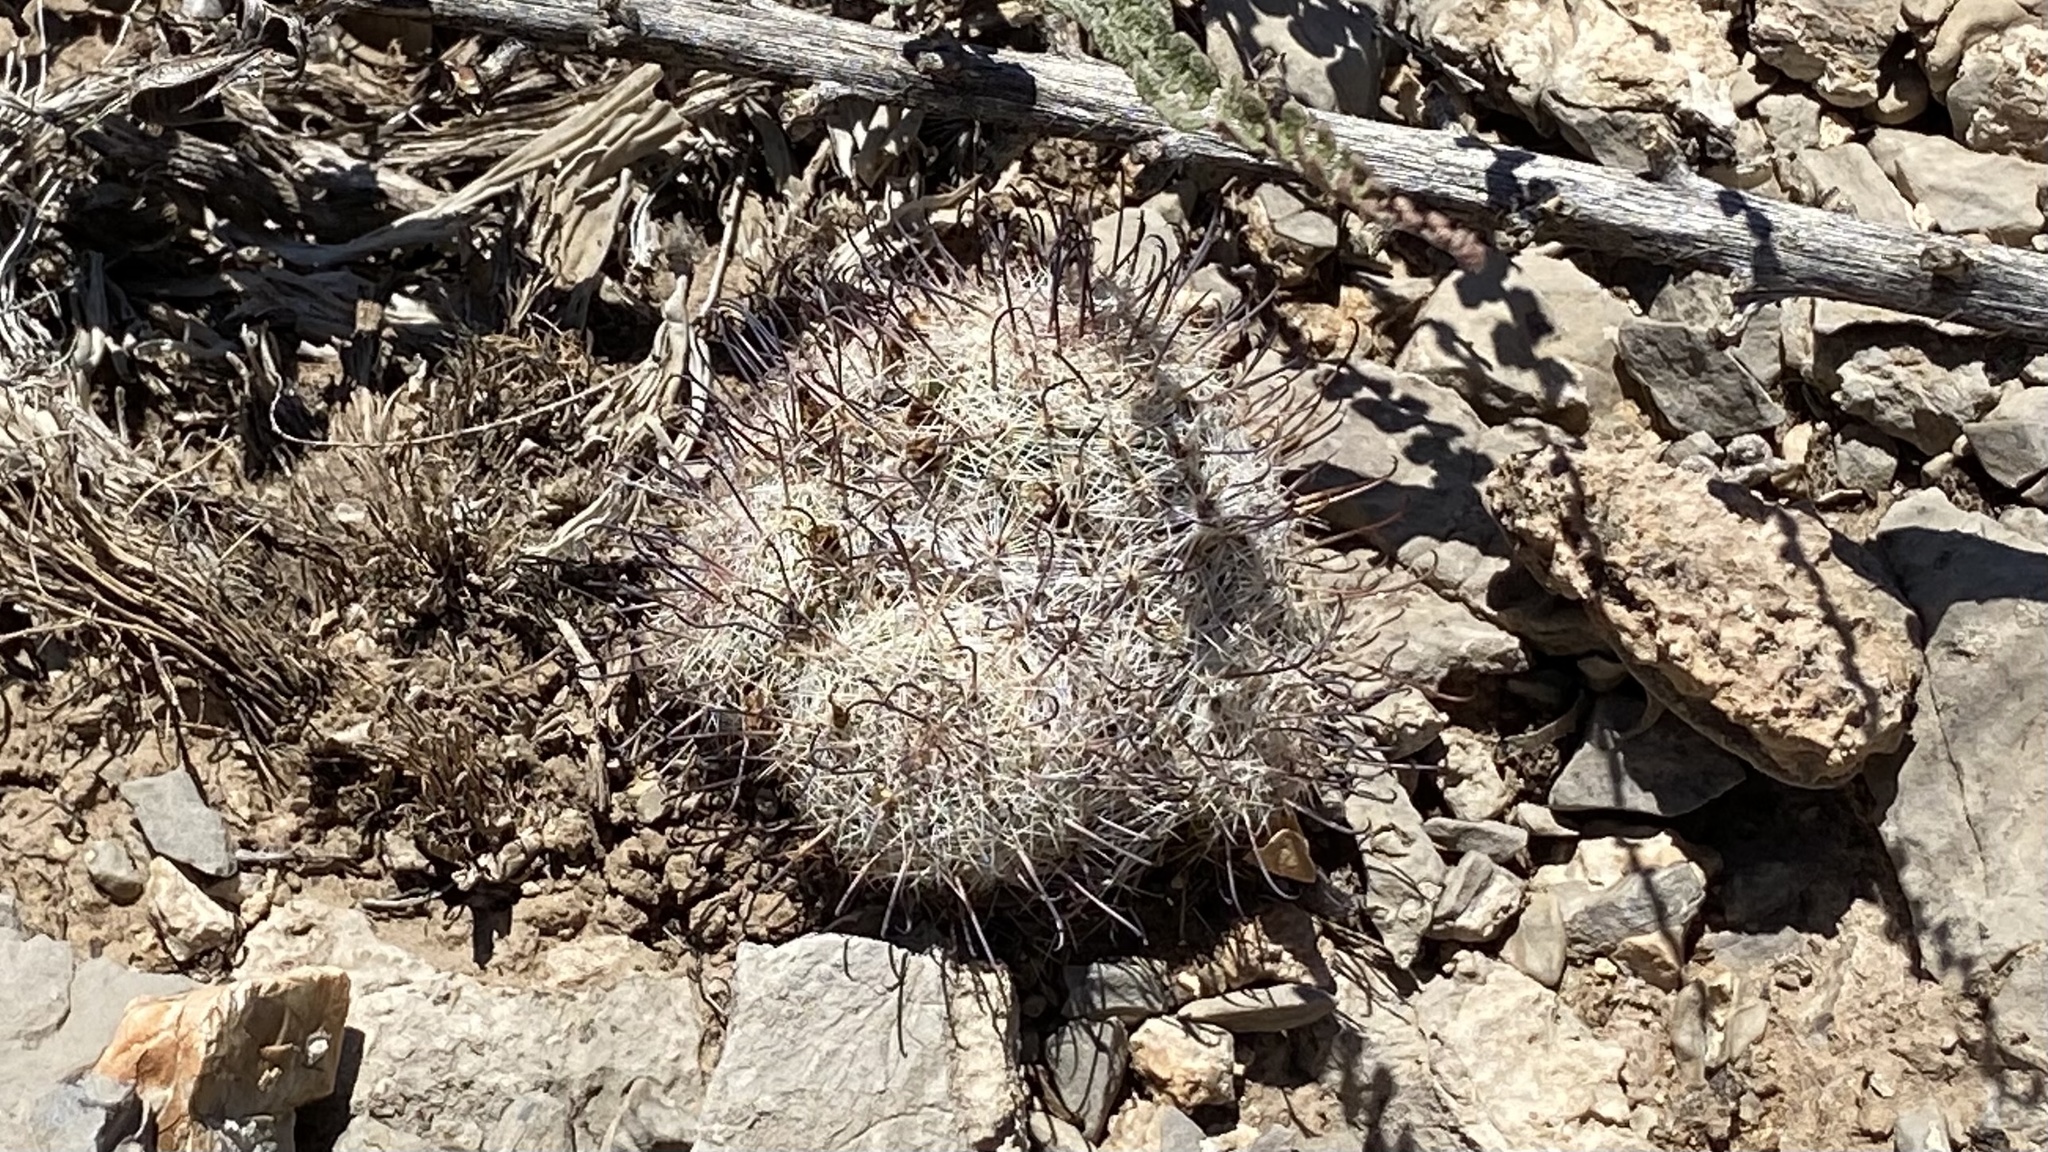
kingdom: Plantae
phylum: Tracheophyta
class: Magnoliopsida
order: Caryophyllales
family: Cactaceae
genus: Cochemiea
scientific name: Cochemiea grahamii
